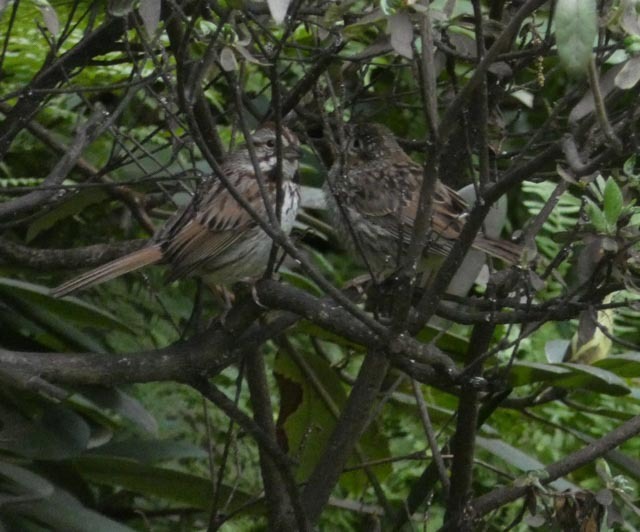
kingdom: Animalia
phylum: Chordata
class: Aves
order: Passeriformes
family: Passerellidae
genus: Melospiza
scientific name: Melospiza melodia
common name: Song sparrow
